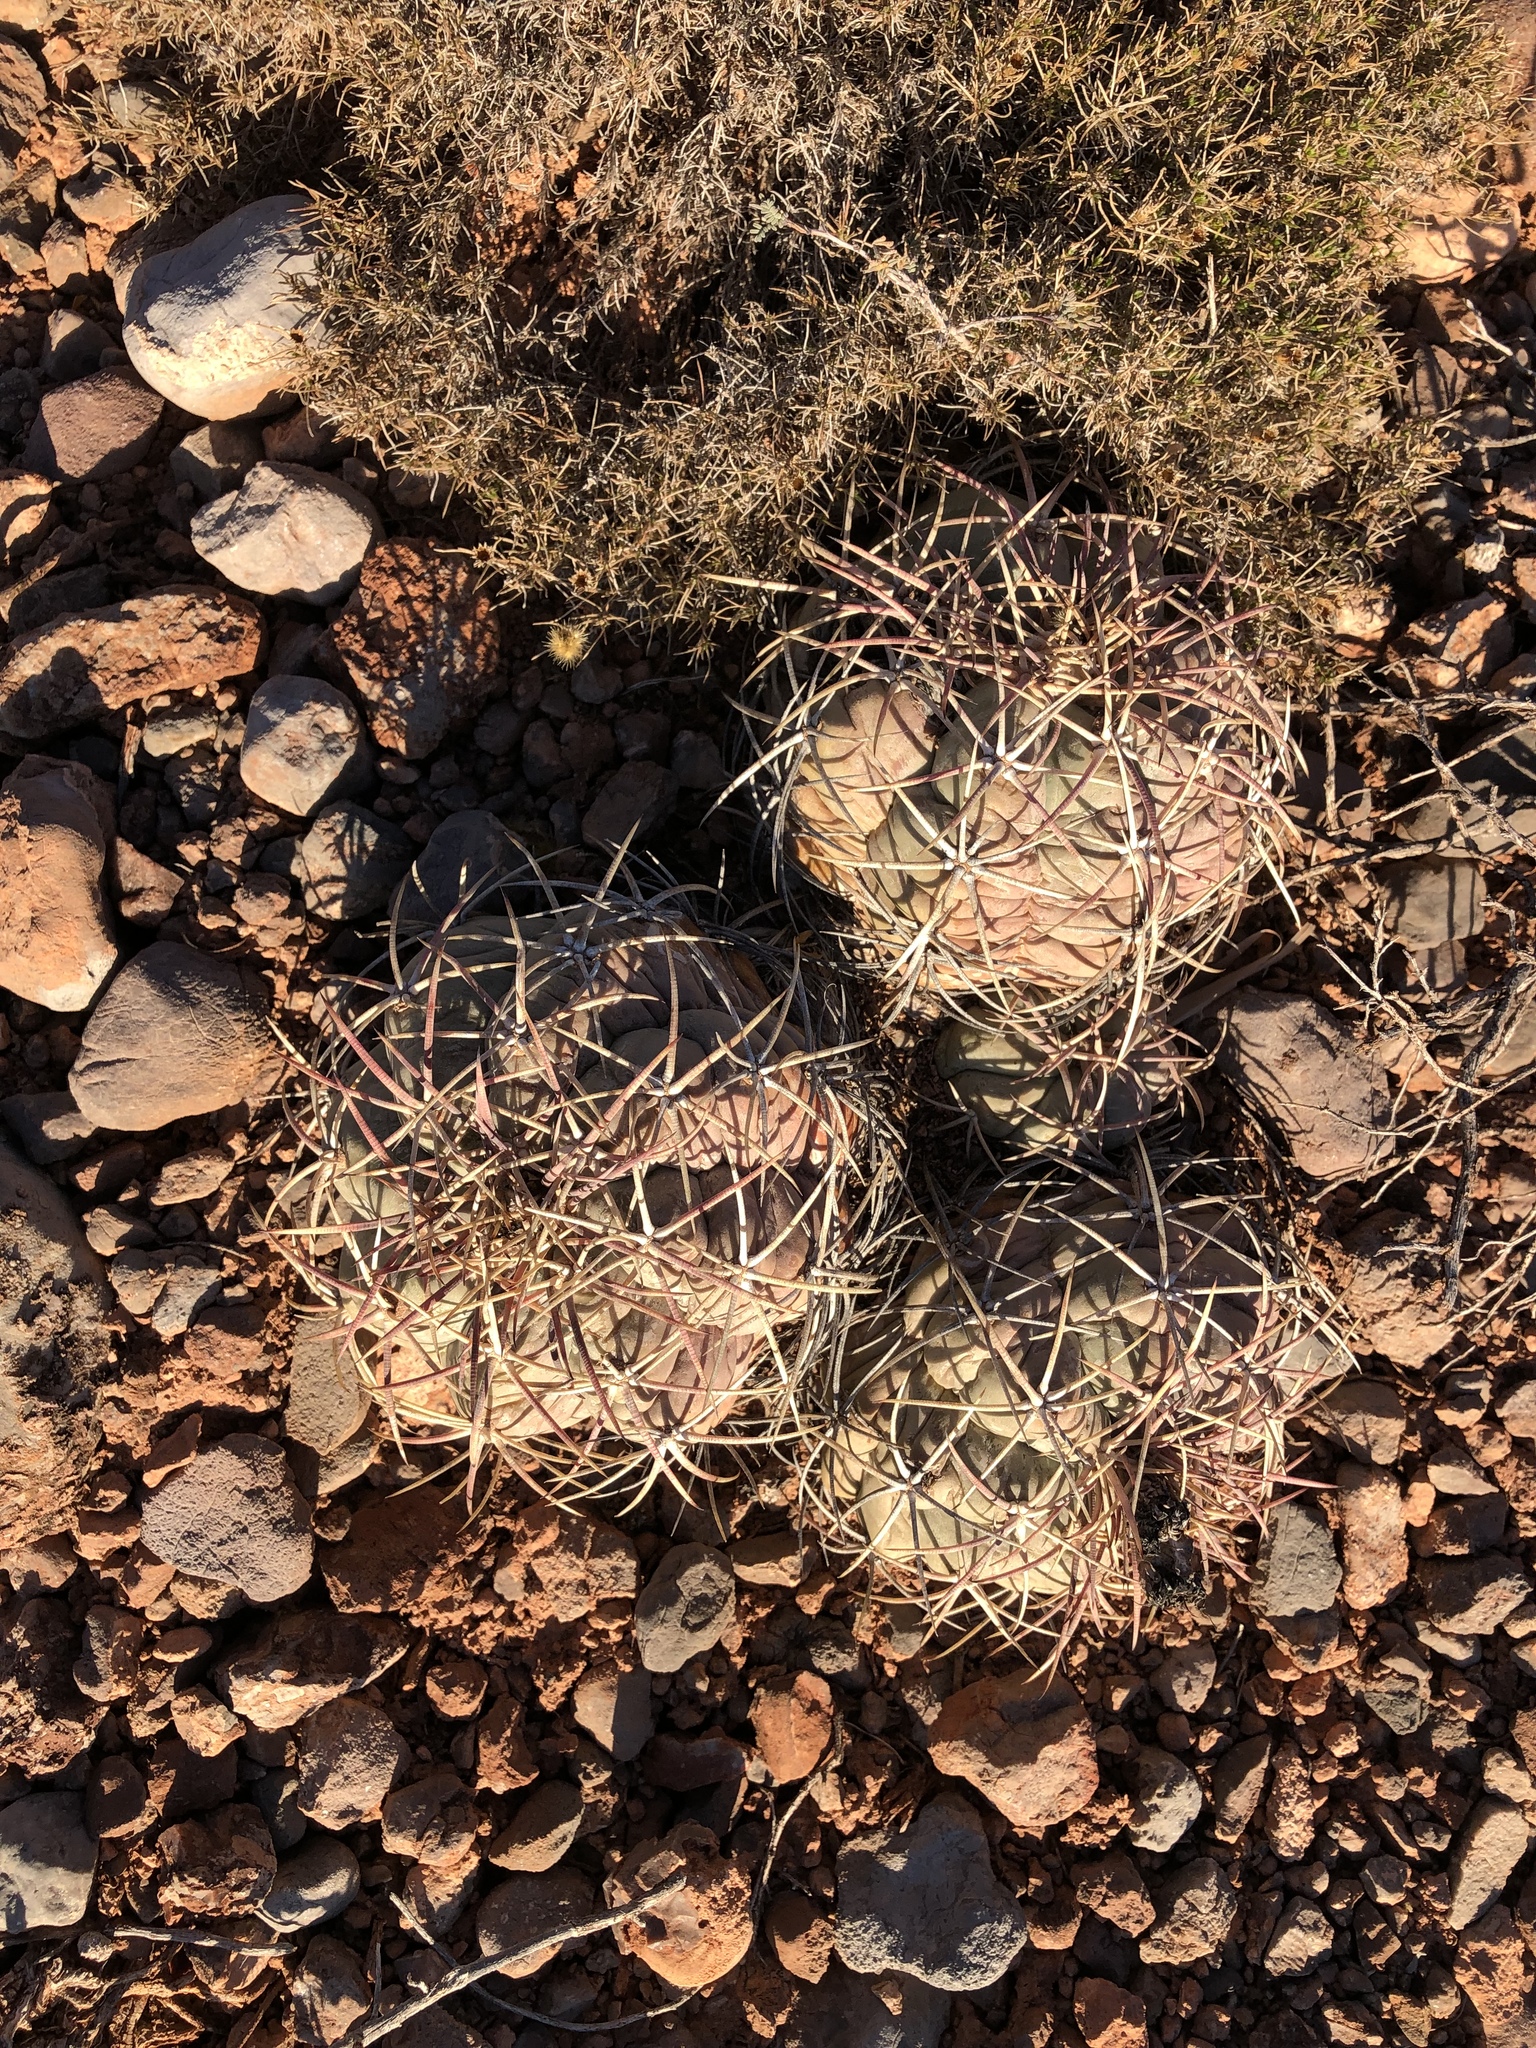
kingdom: Plantae
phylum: Tracheophyta
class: Magnoliopsida
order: Caryophyllales
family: Cactaceae
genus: Echinocactus
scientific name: Echinocactus horizonthalonius
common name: Devilshead
